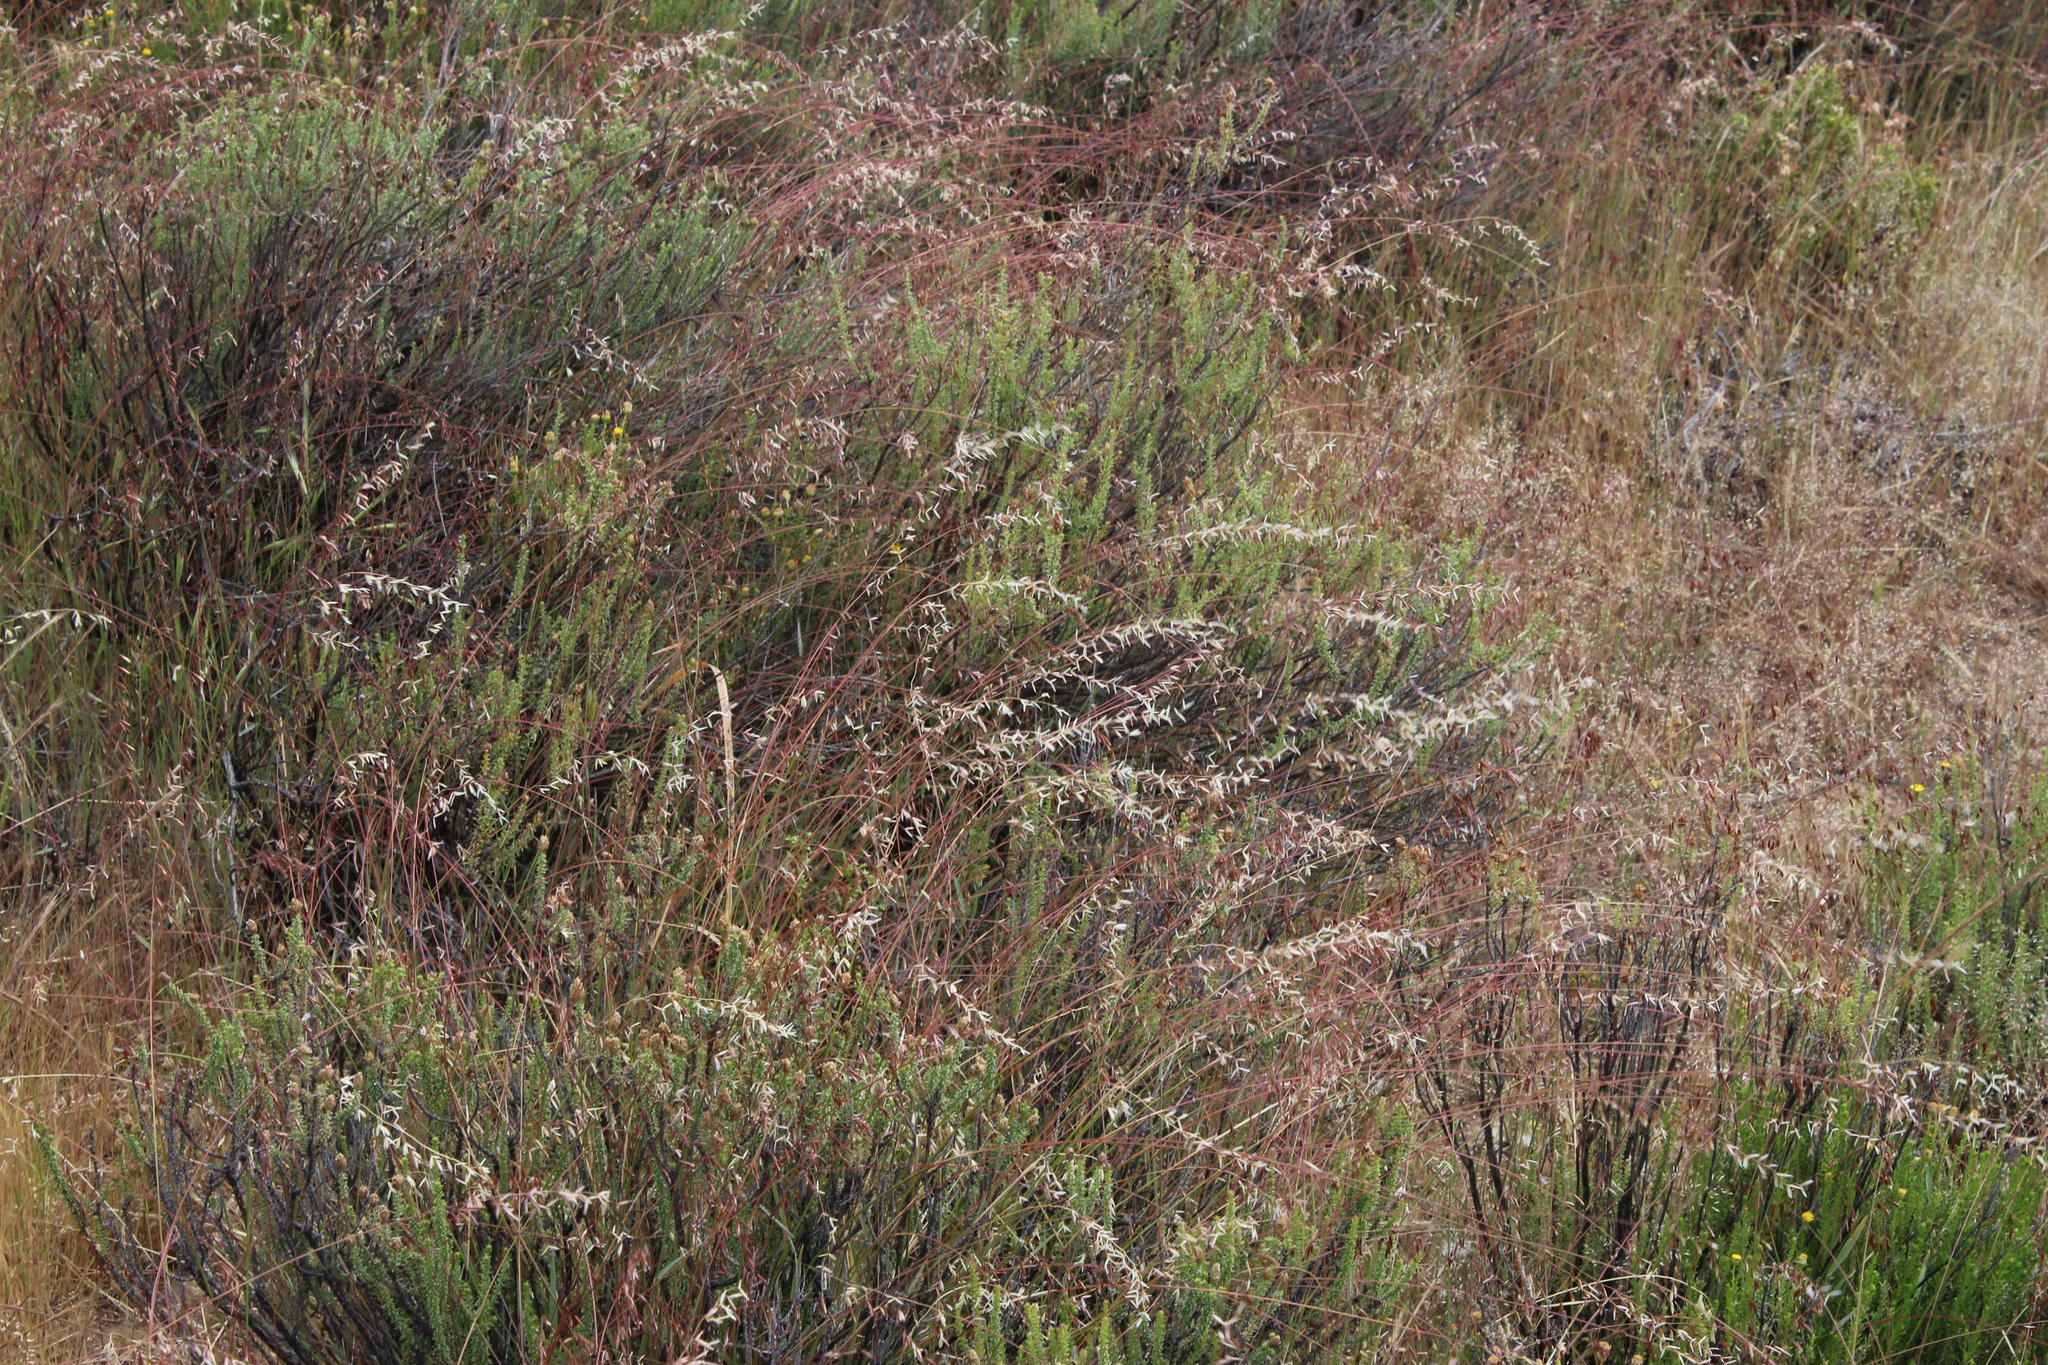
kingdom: Plantae
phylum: Tracheophyta
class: Liliopsida
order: Poales
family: Poaceae
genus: Ehrharta
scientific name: Ehrharta calycina
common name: Perennial veldtgrass
